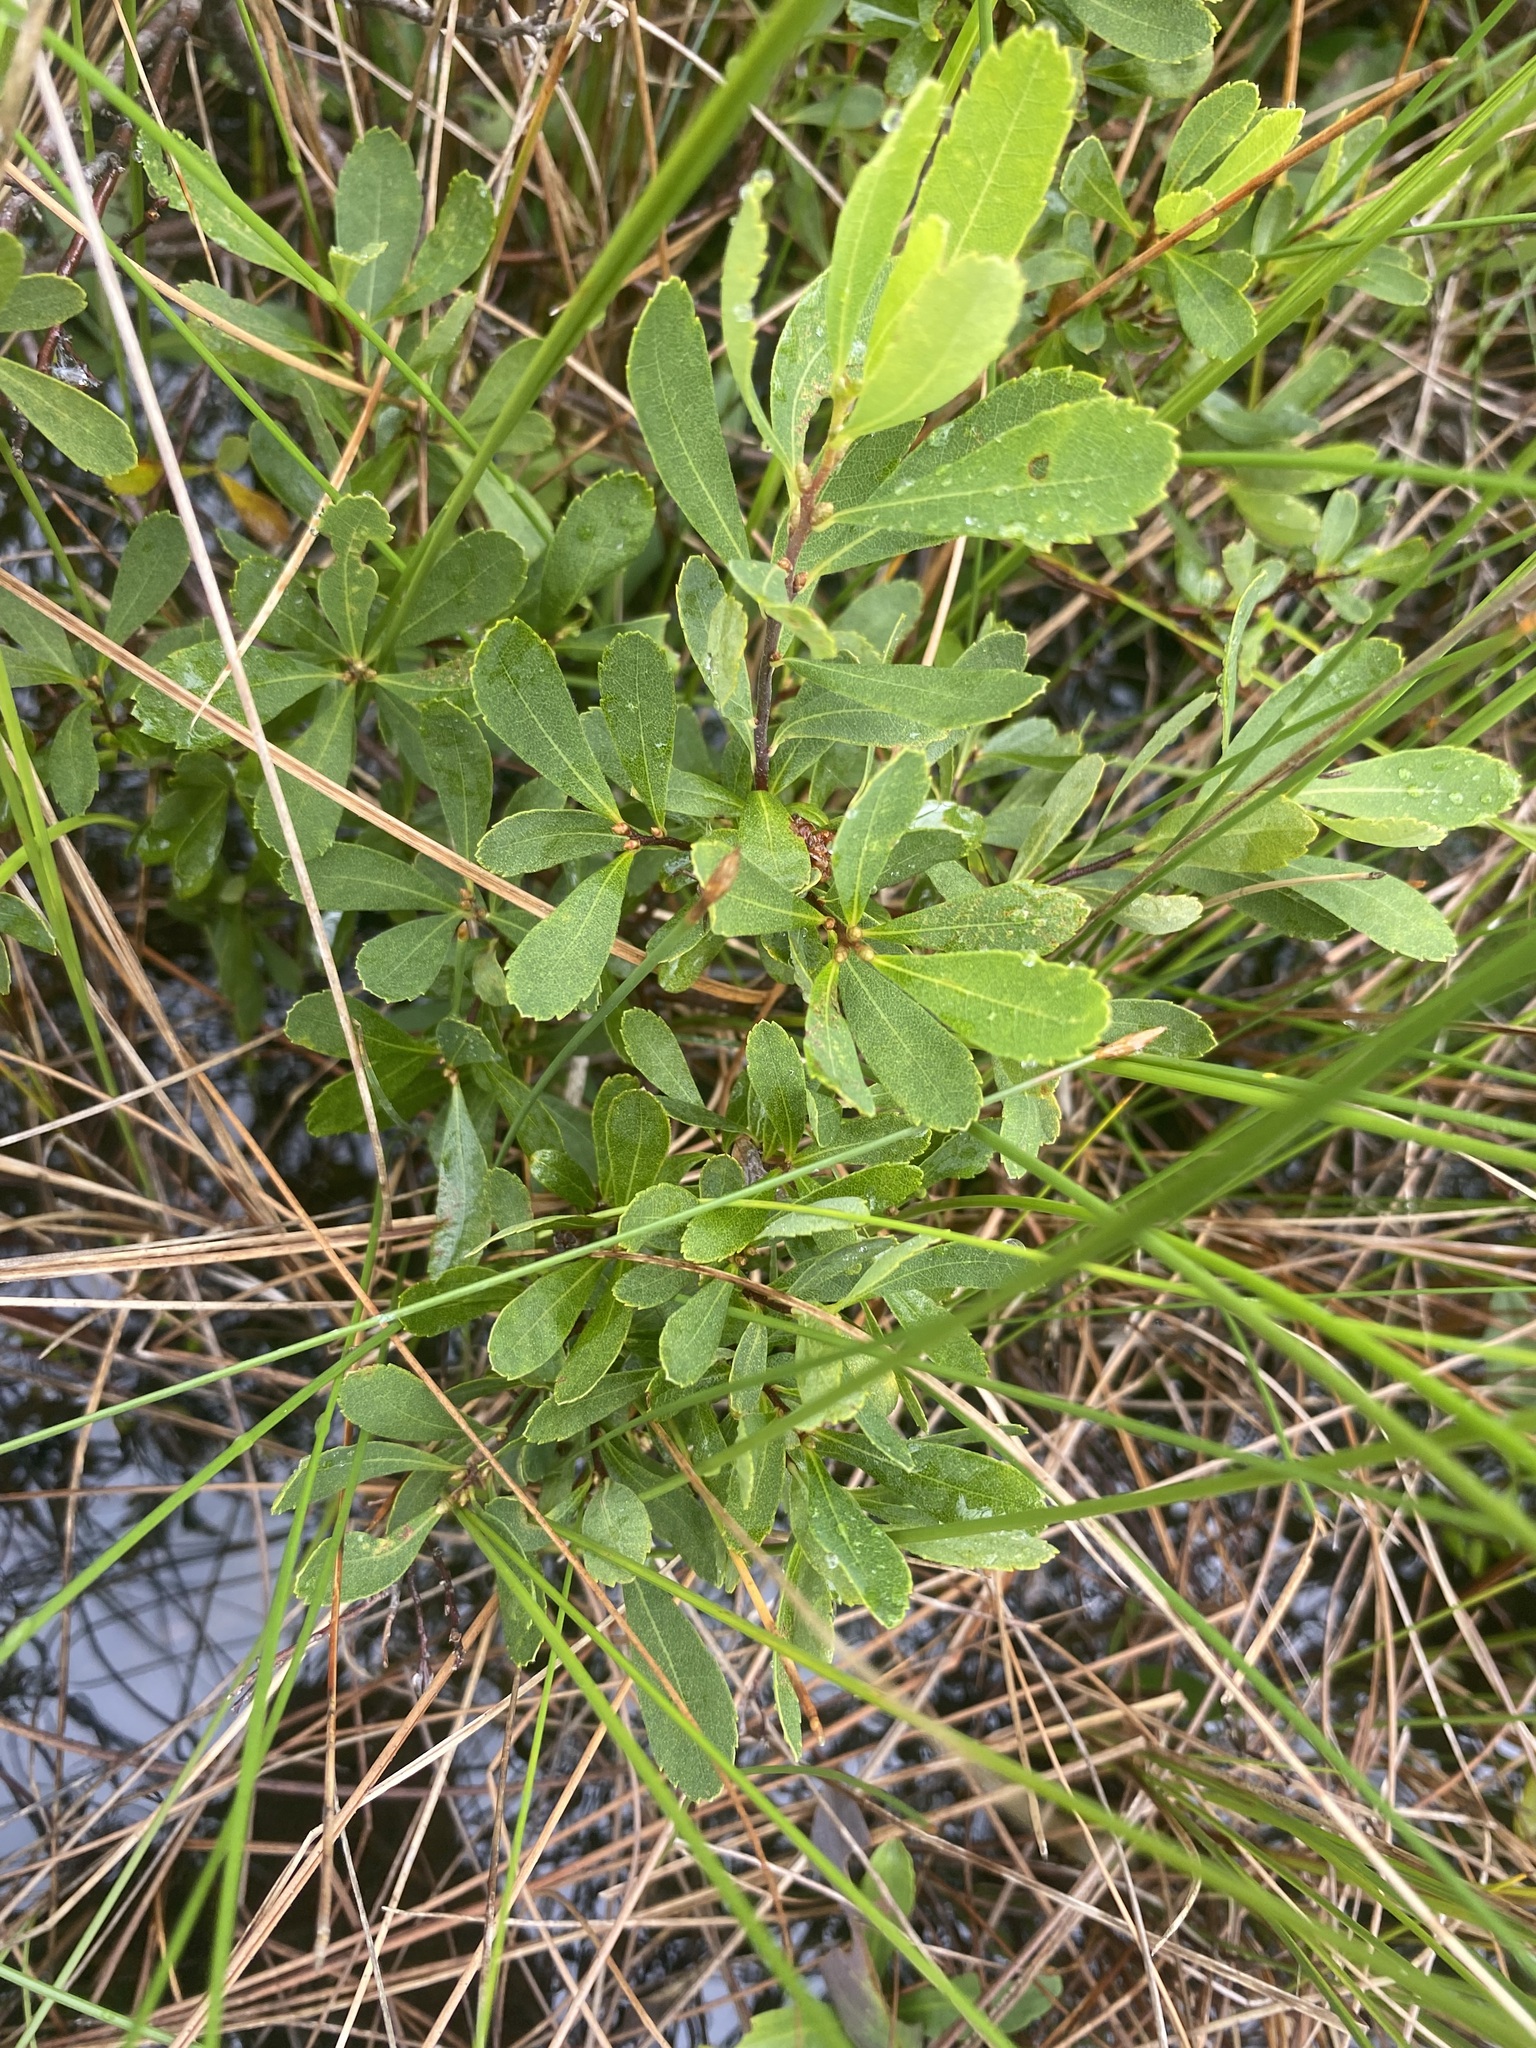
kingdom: Plantae
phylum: Tracheophyta
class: Magnoliopsida
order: Fagales
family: Myricaceae
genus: Myrica
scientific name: Myrica gale
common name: Sweet gale
